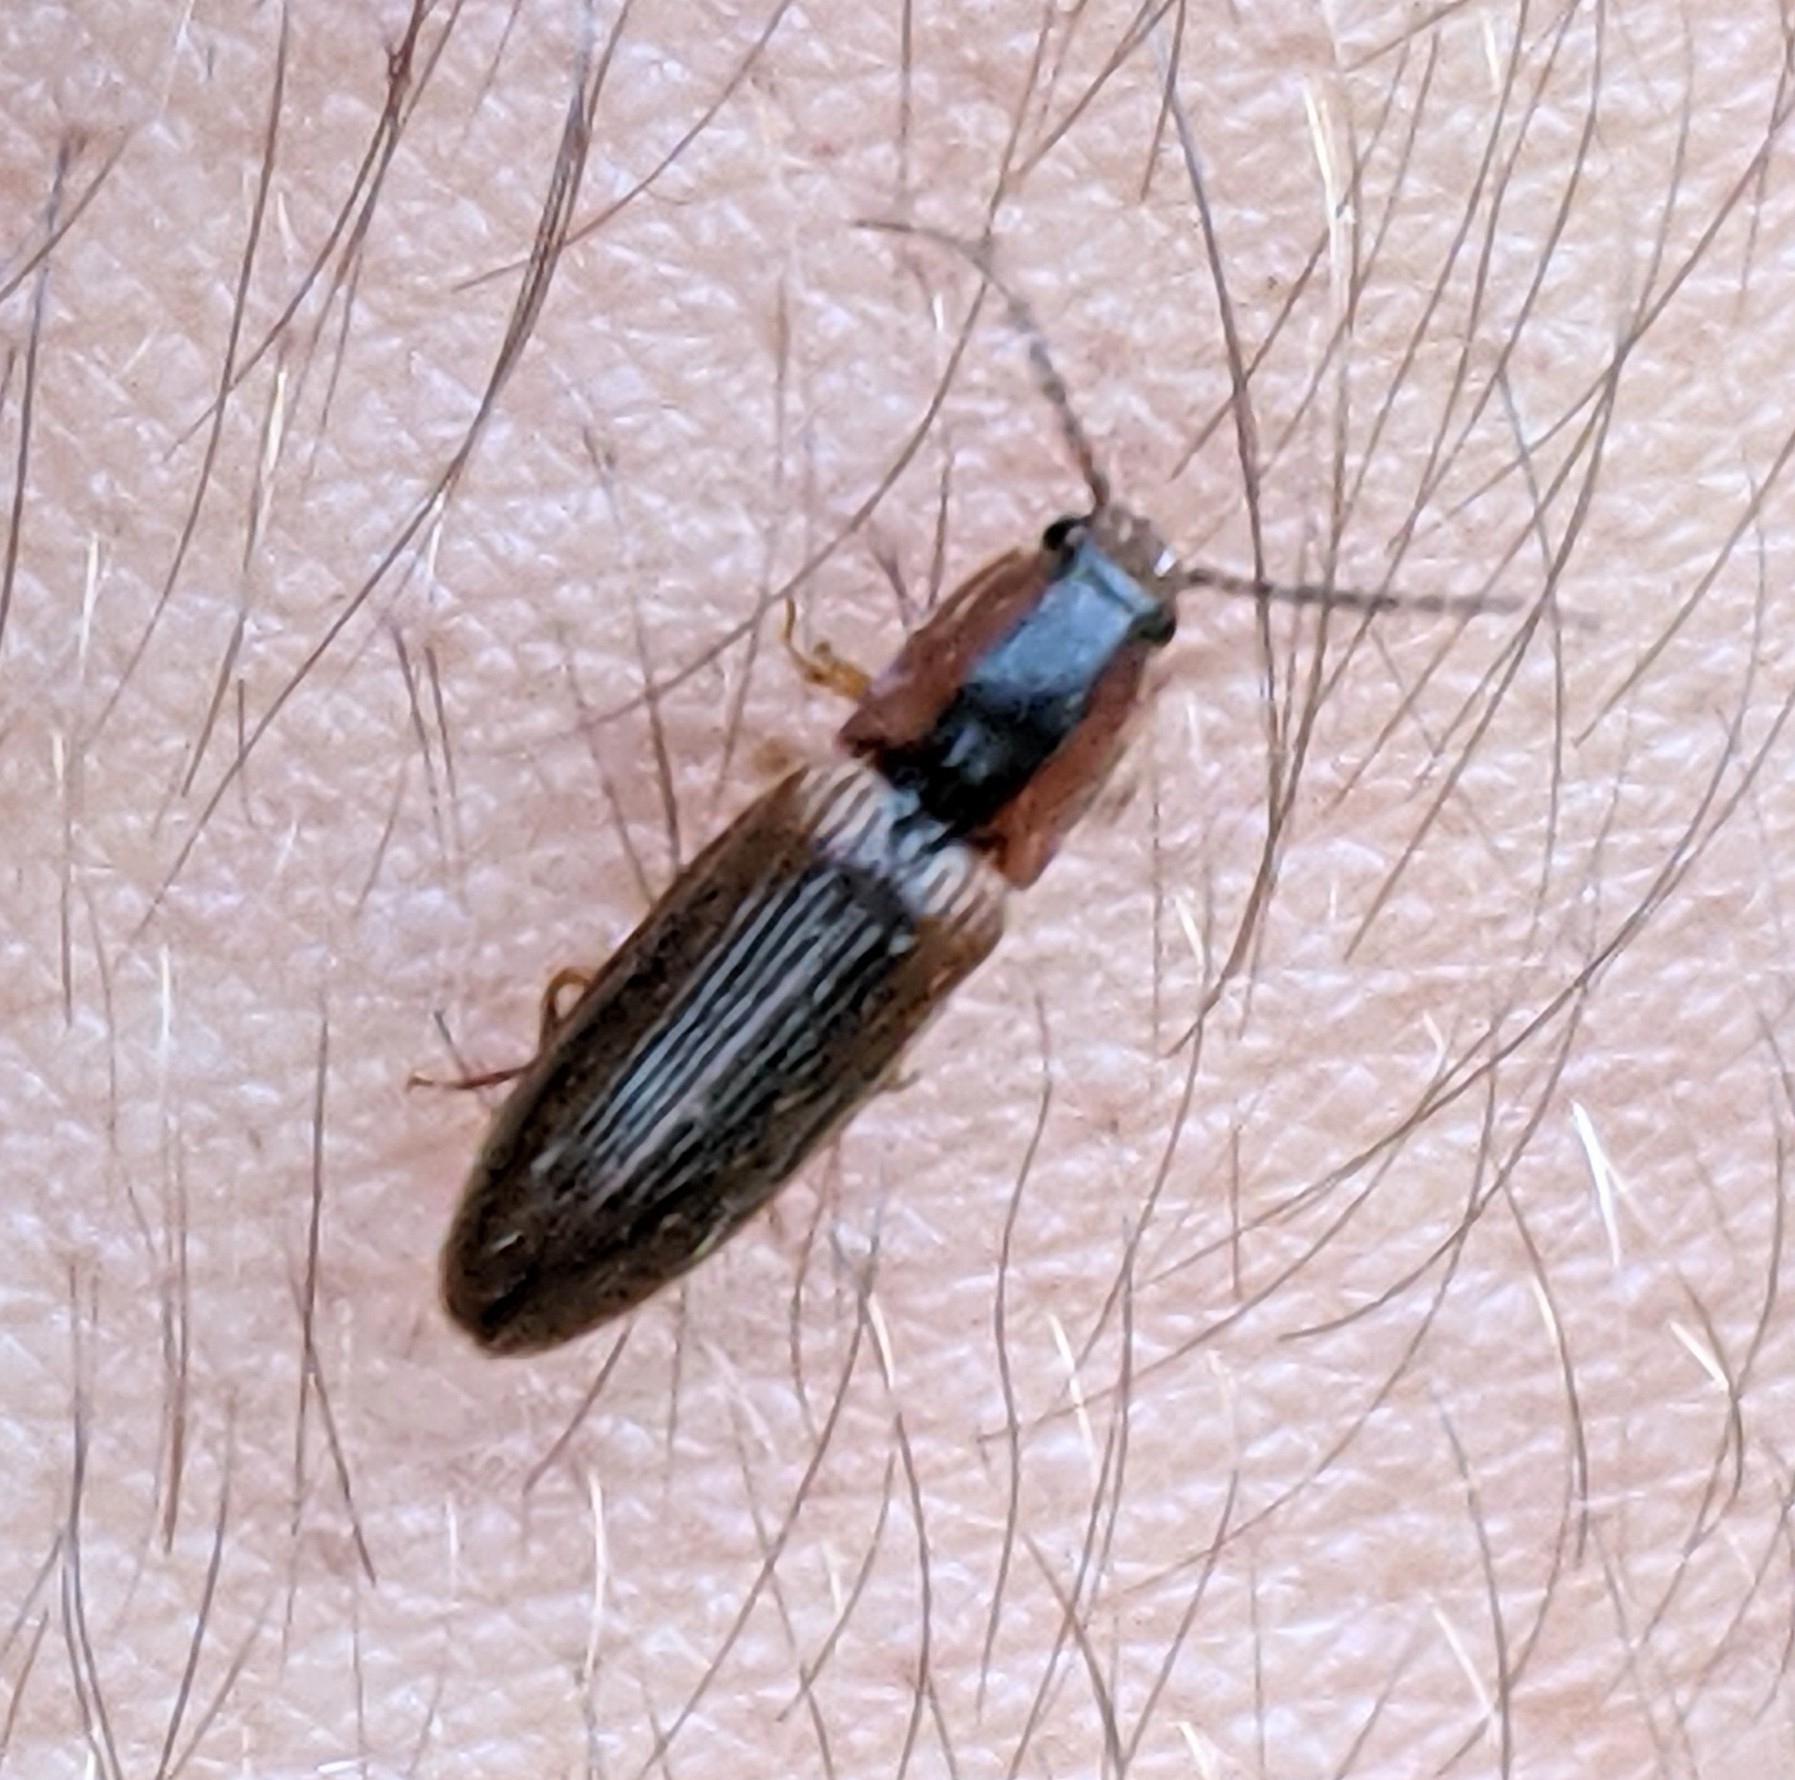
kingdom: Animalia
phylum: Arthropoda
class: Insecta
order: Coleoptera
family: Elateridae
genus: Athous
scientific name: Athous vittiger
